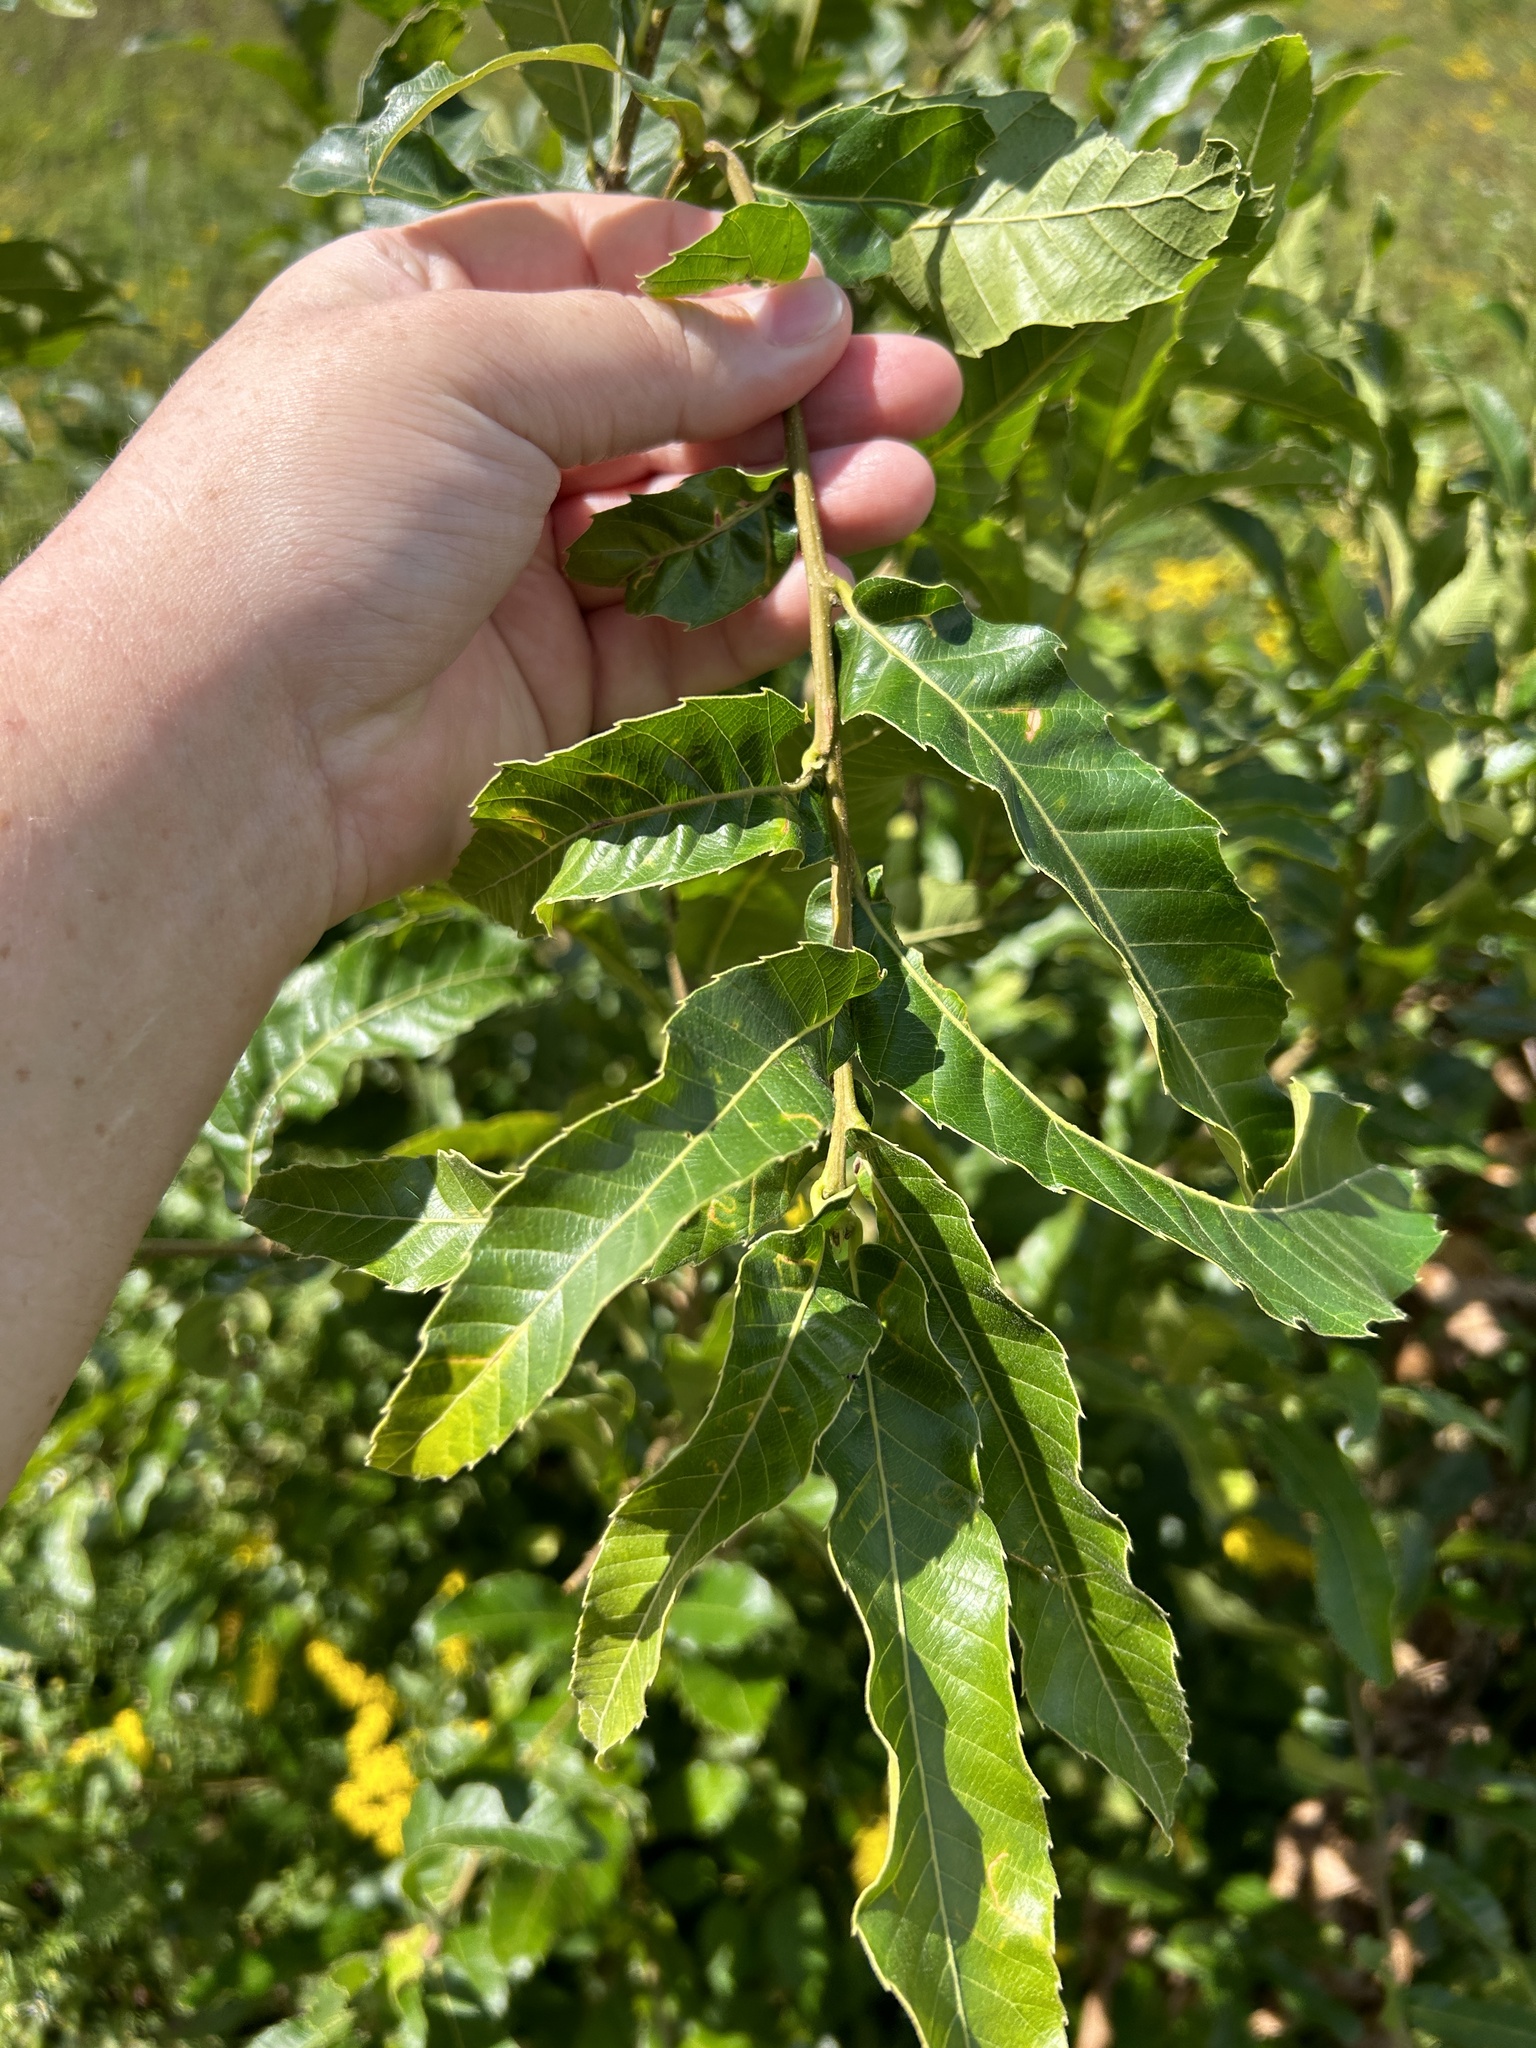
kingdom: Plantae
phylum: Tracheophyta
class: Magnoliopsida
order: Fagales
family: Fagaceae
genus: Quercus
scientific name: Quercus acutissima
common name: Sawtooth oak
